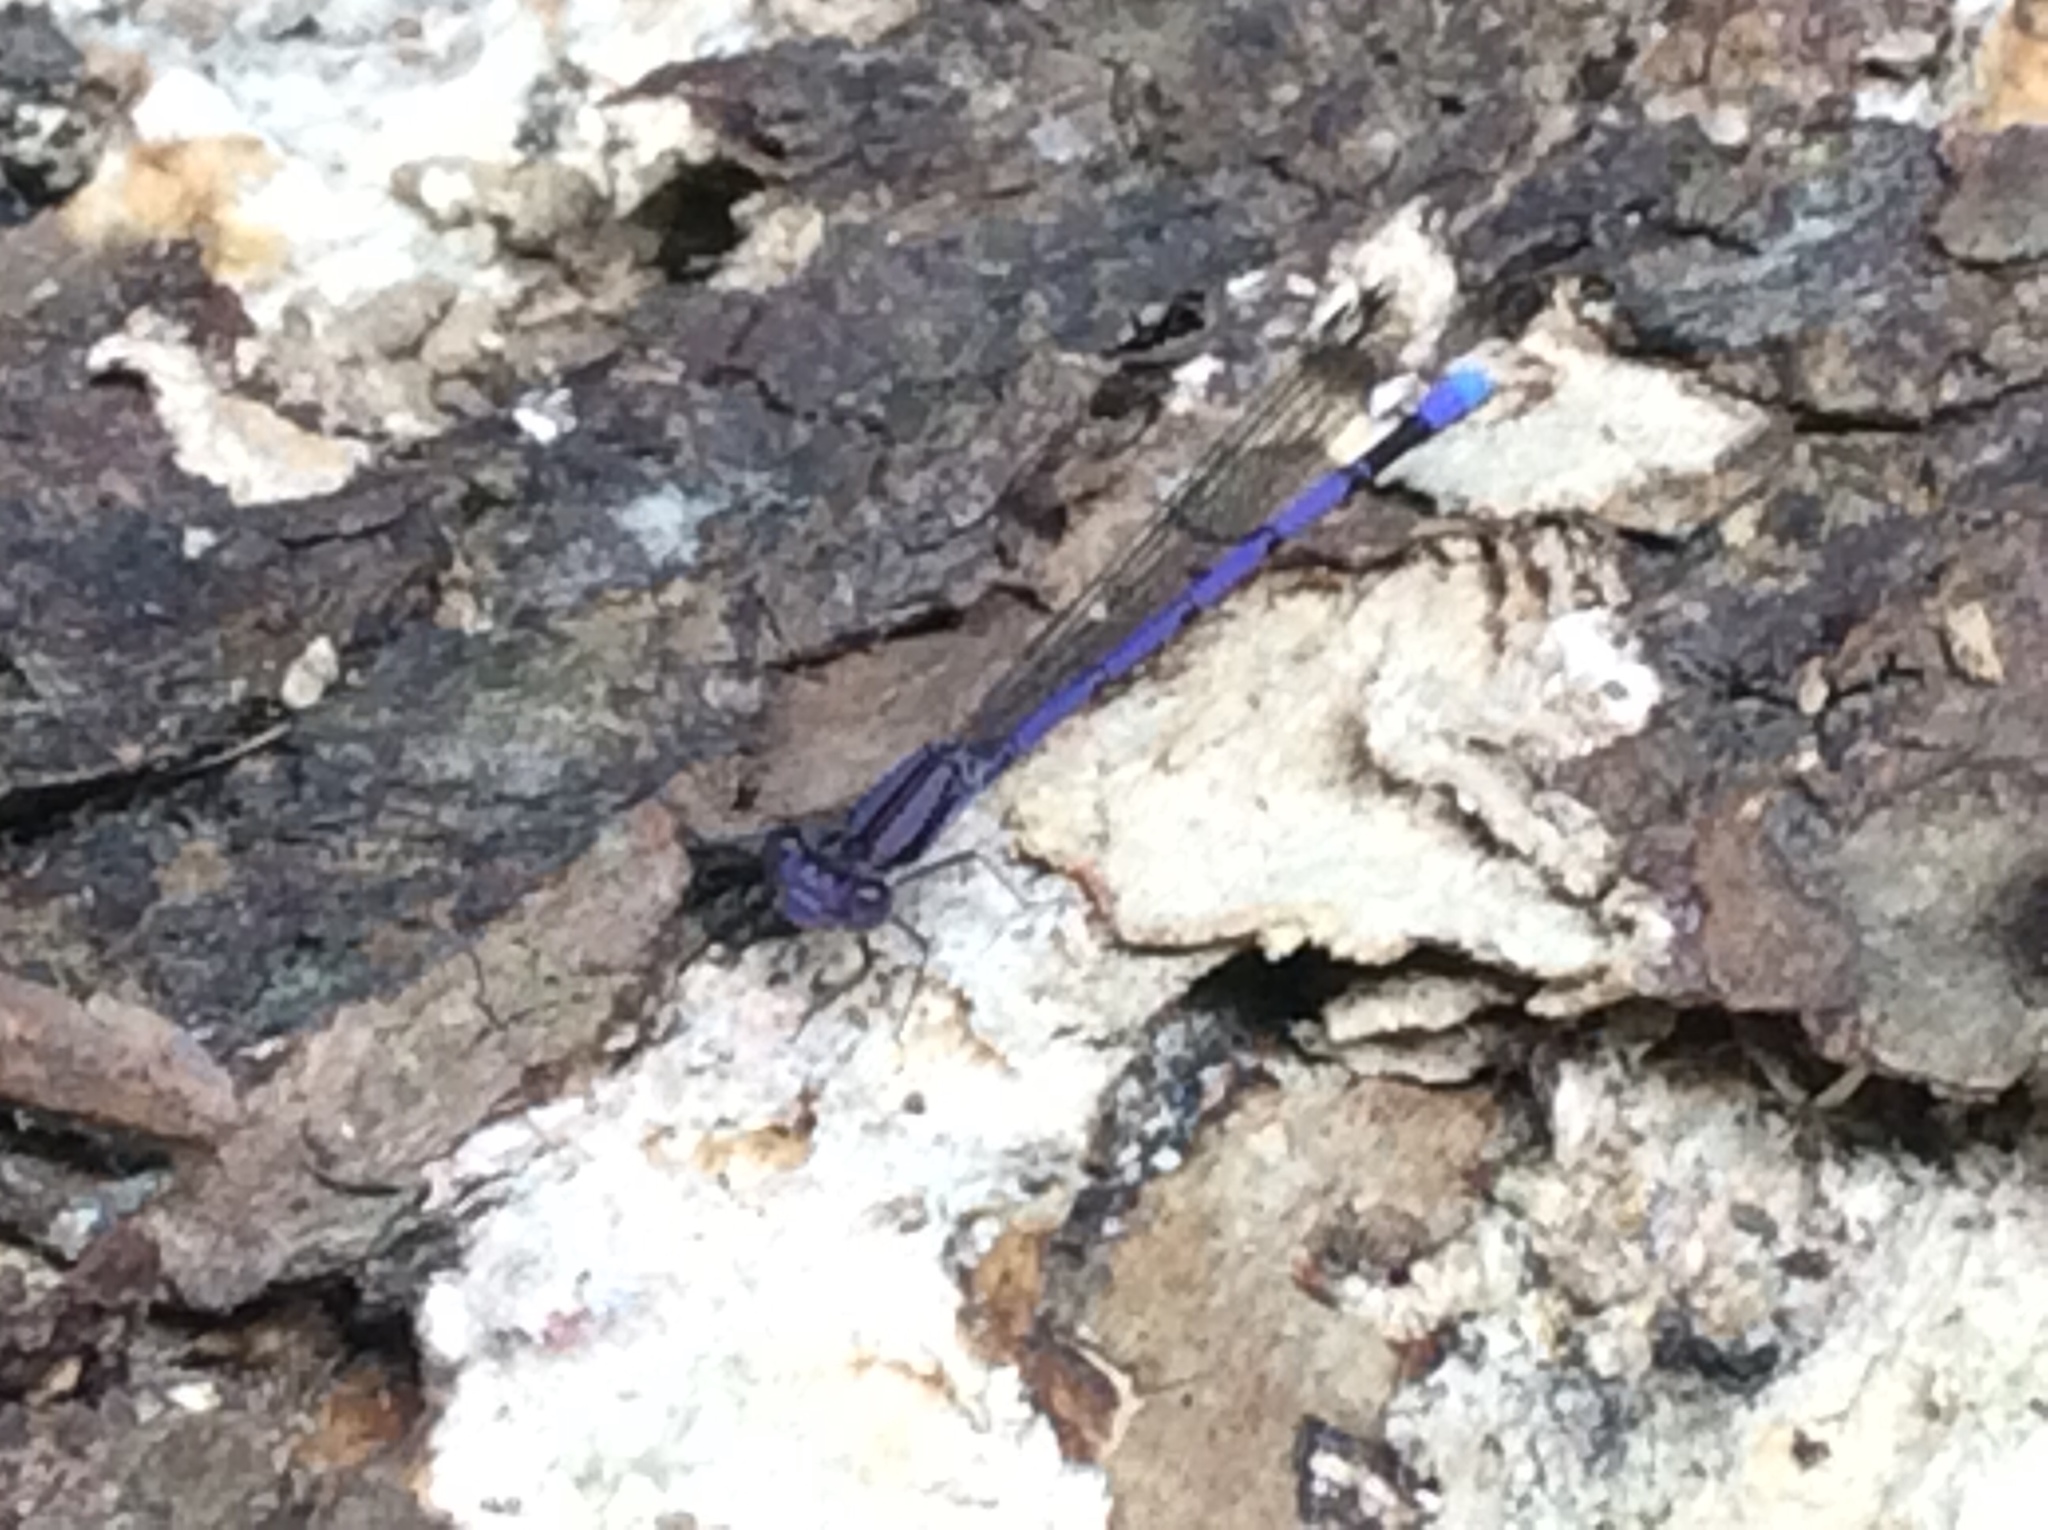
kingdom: Animalia
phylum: Arthropoda
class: Insecta
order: Odonata
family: Coenagrionidae
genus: Argia
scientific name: Argia fumipennis
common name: Variable dancer
